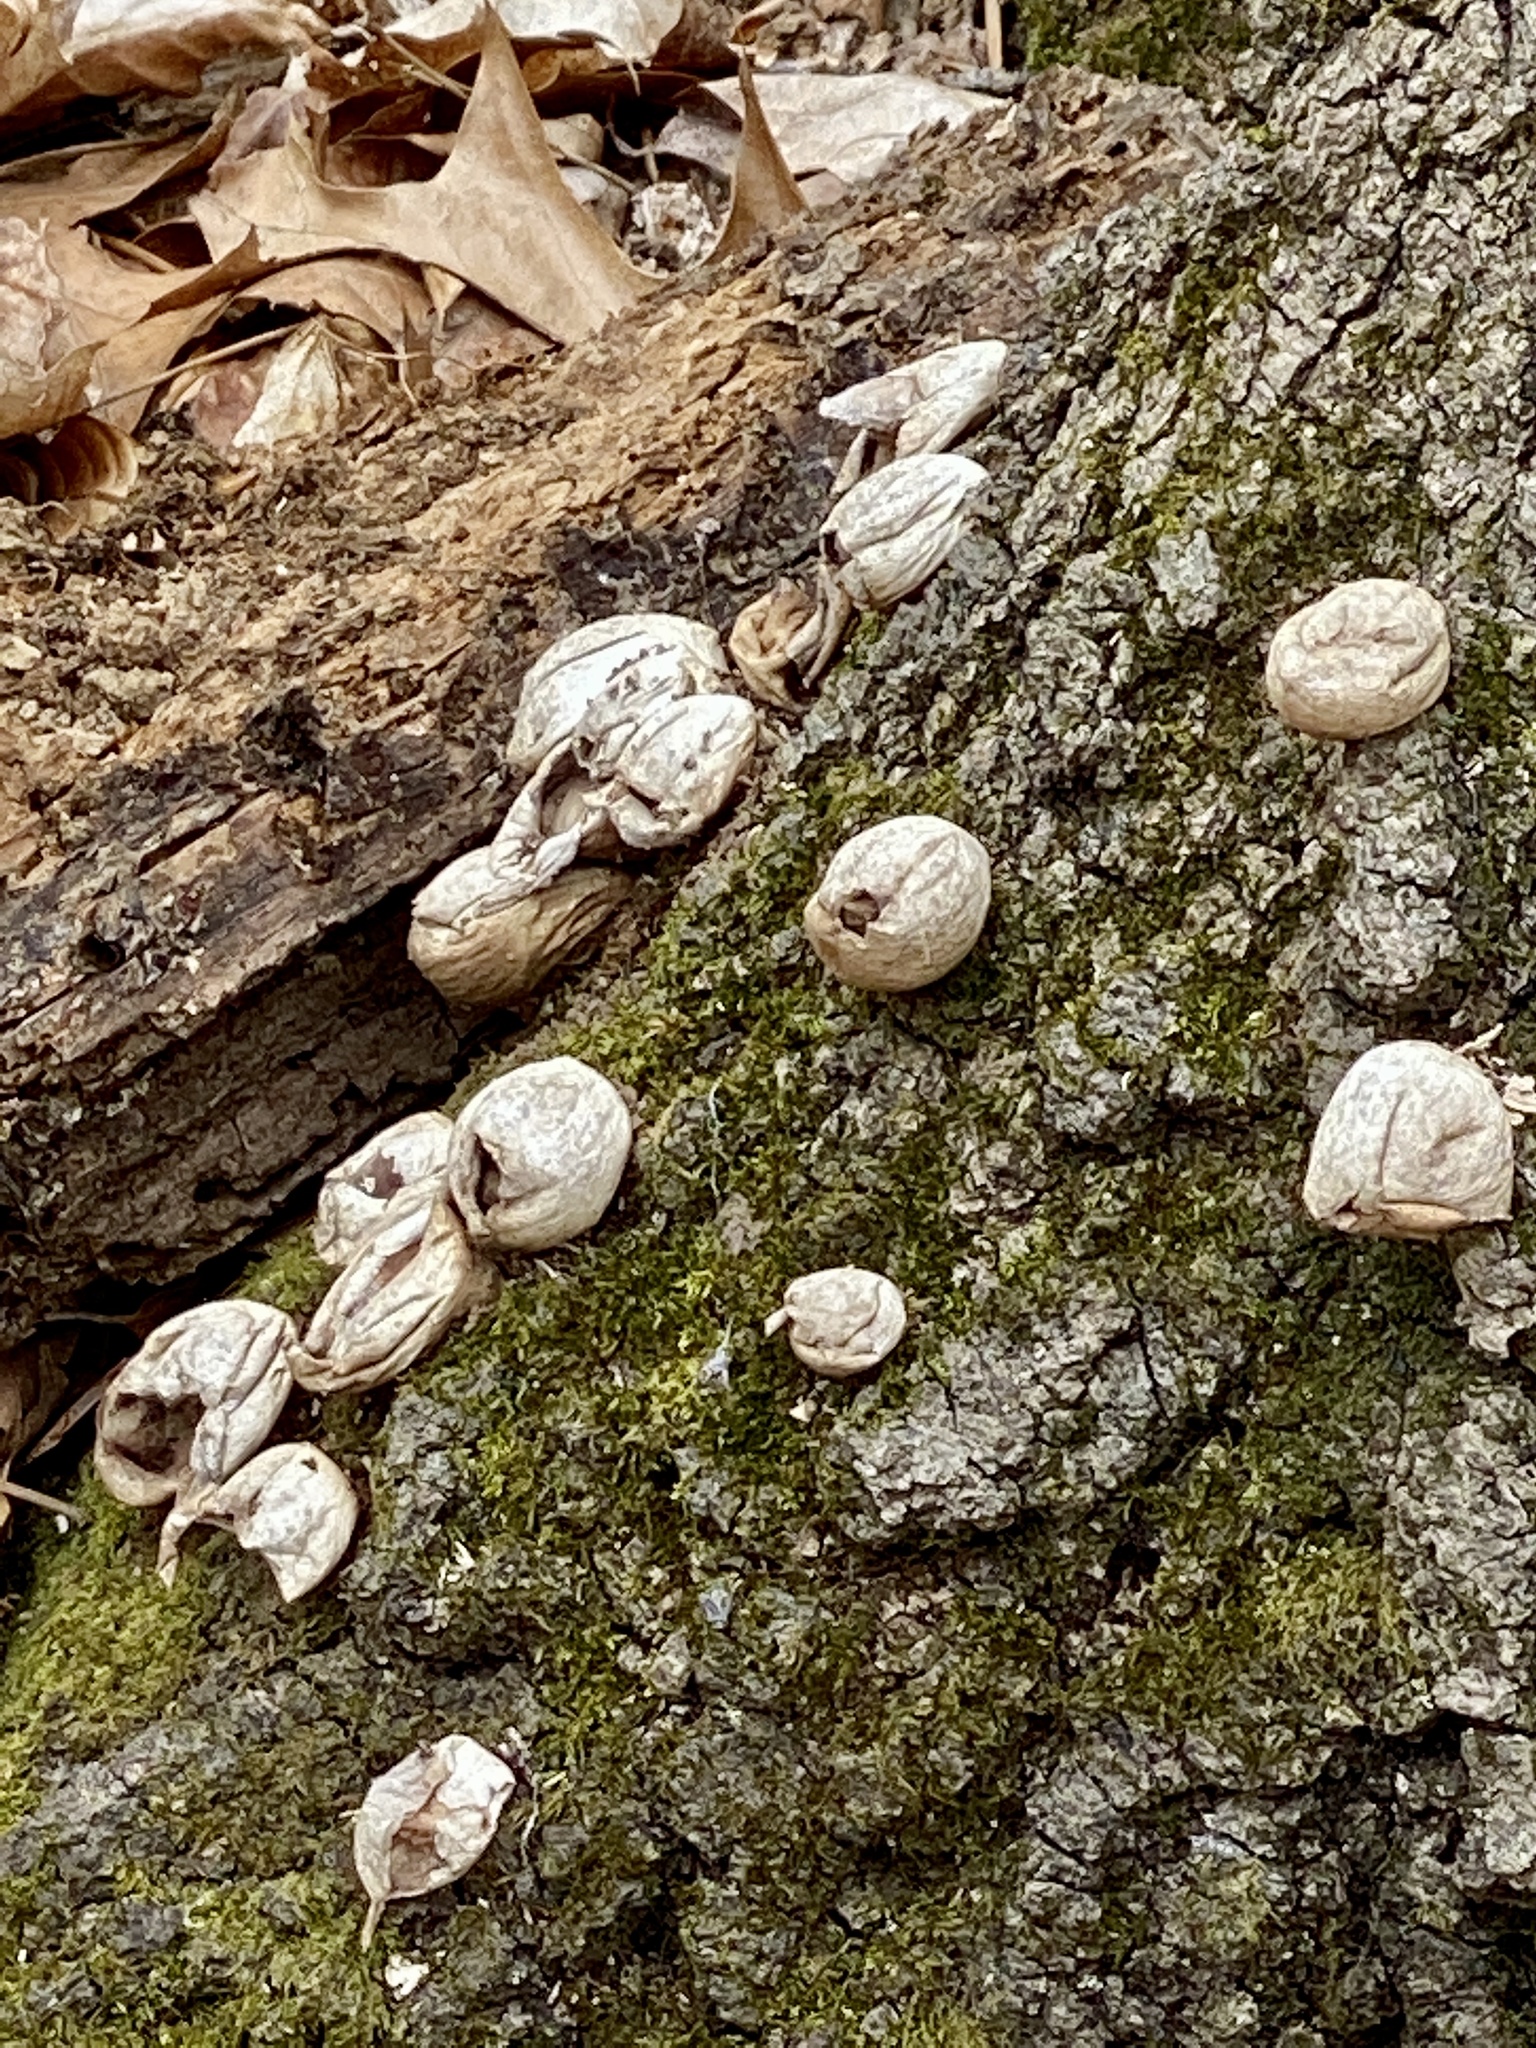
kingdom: Fungi
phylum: Basidiomycota
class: Agaricomycetes
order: Agaricales
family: Lycoperdaceae
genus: Apioperdon
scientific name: Apioperdon pyriforme
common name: Pear-shaped puffball
